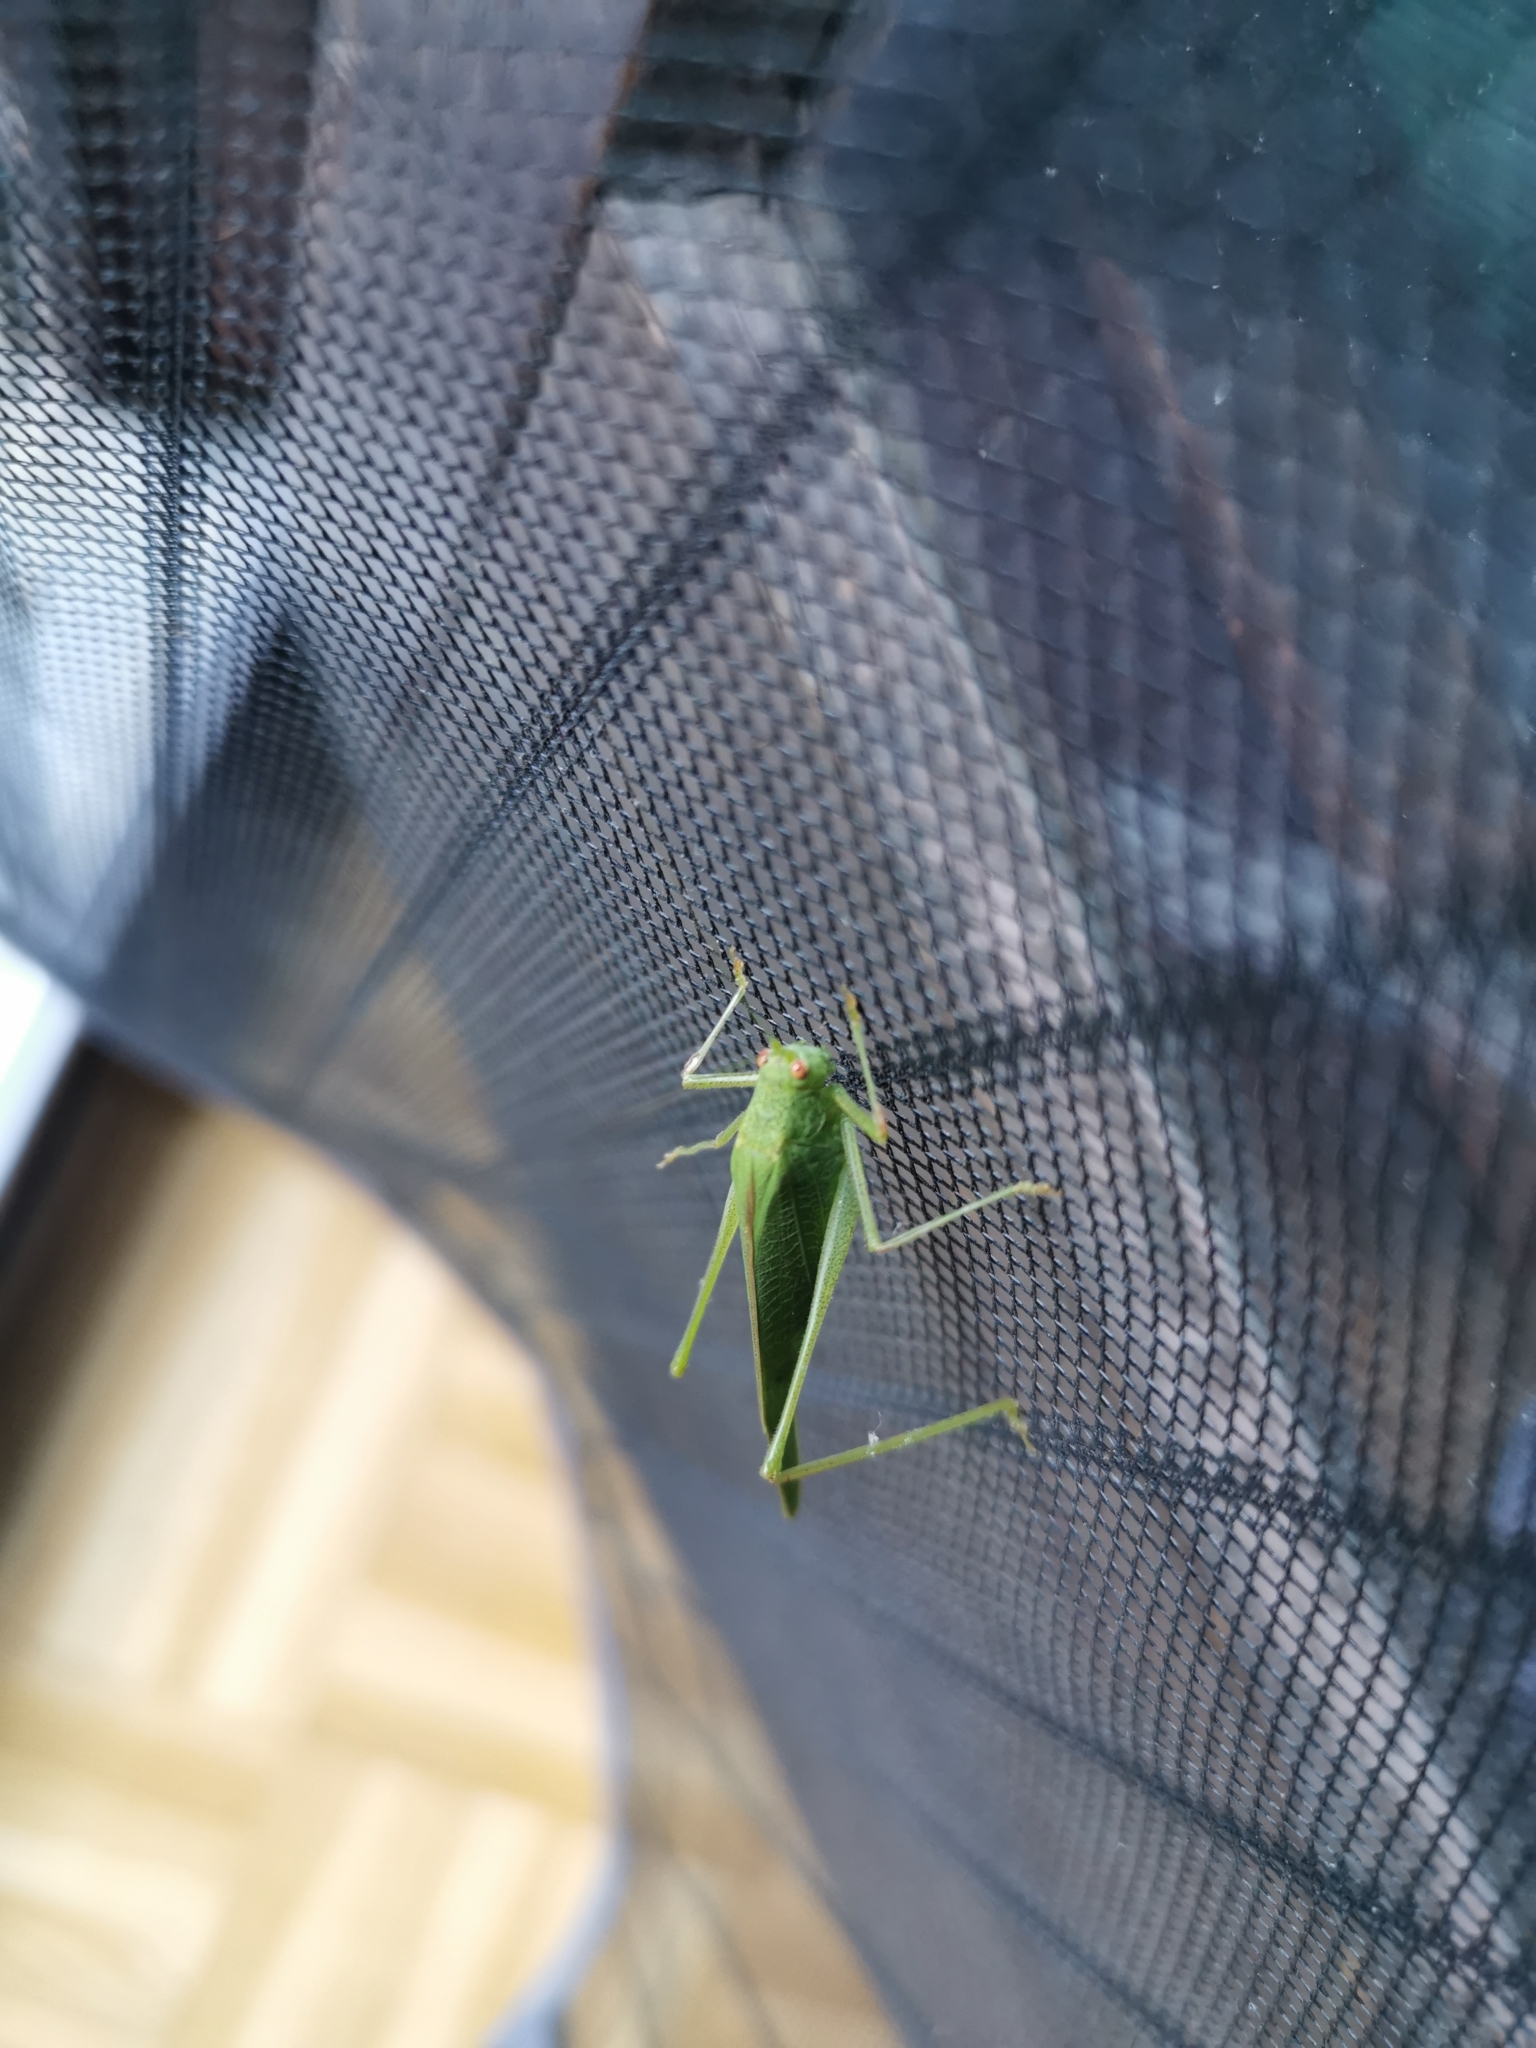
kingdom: Animalia
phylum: Arthropoda
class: Insecta
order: Orthoptera
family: Tettigoniidae
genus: Phaneroptera
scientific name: Phaneroptera nana
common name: Southern sickle bush-cricket
